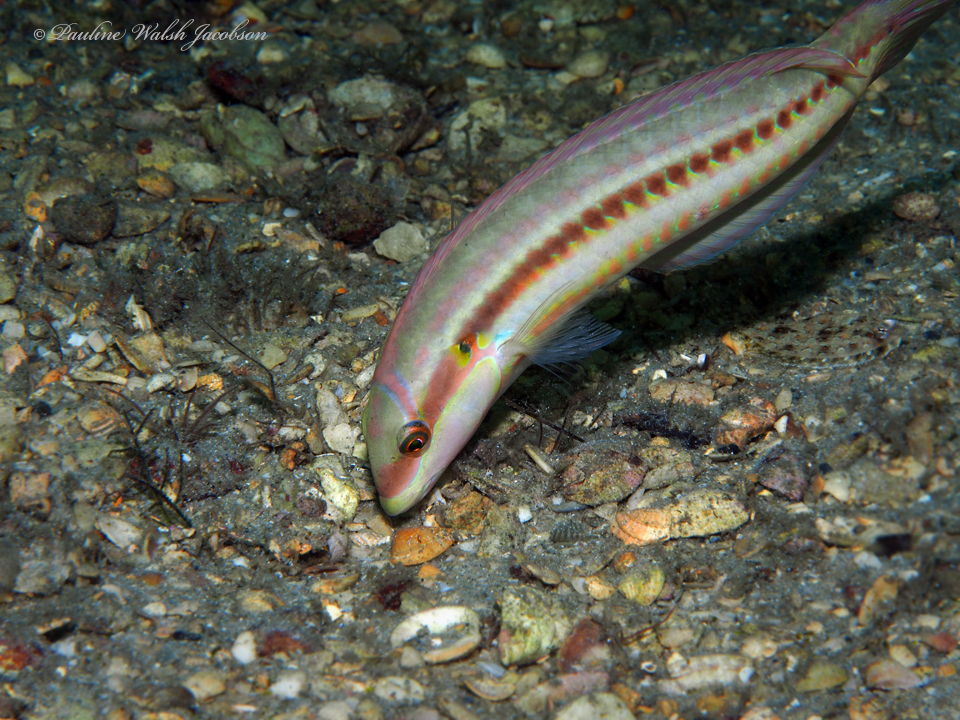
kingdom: Animalia
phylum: Chordata
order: Perciformes
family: Labridae
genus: Halichoeres
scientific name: Halichoeres bivittatus
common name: Slippery dick
